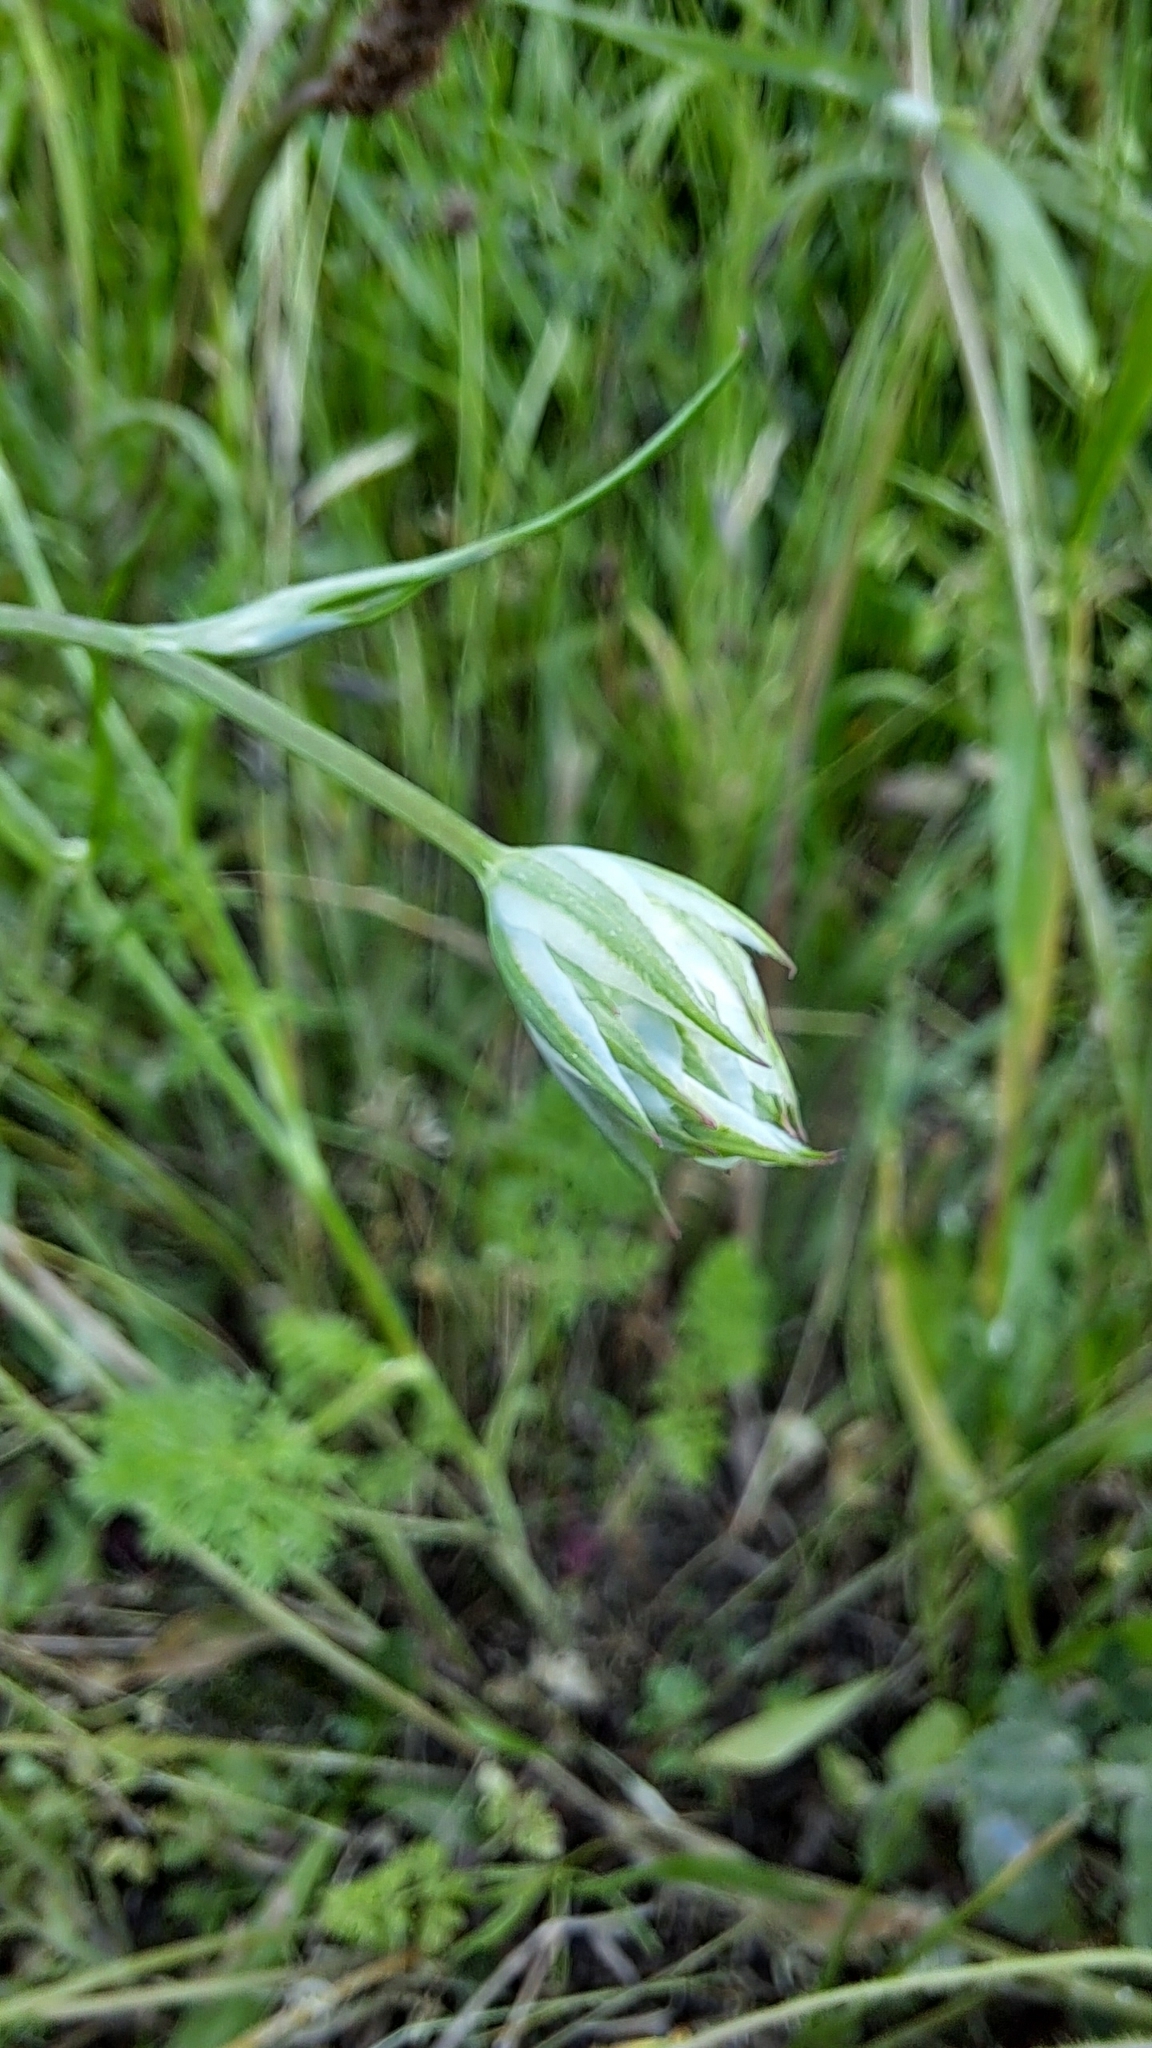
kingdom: Plantae
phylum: Tracheophyta
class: Magnoliopsida
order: Apiales
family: Apiaceae
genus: Orlaya
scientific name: Orlaya grandiflora
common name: White lace flower
